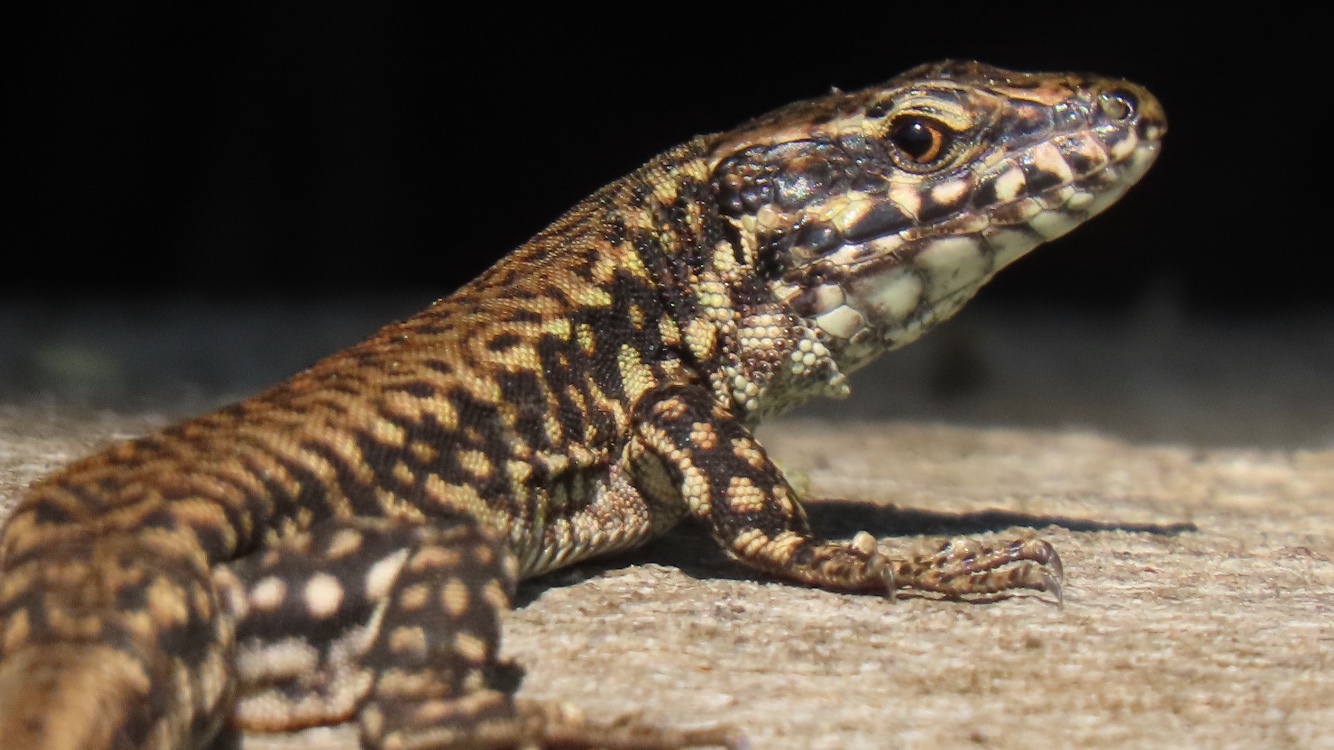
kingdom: Animalia
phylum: Chordata
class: Squamata
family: Lacertidae
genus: Podarcis
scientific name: Podarcis muralis
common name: Common wall lizard
